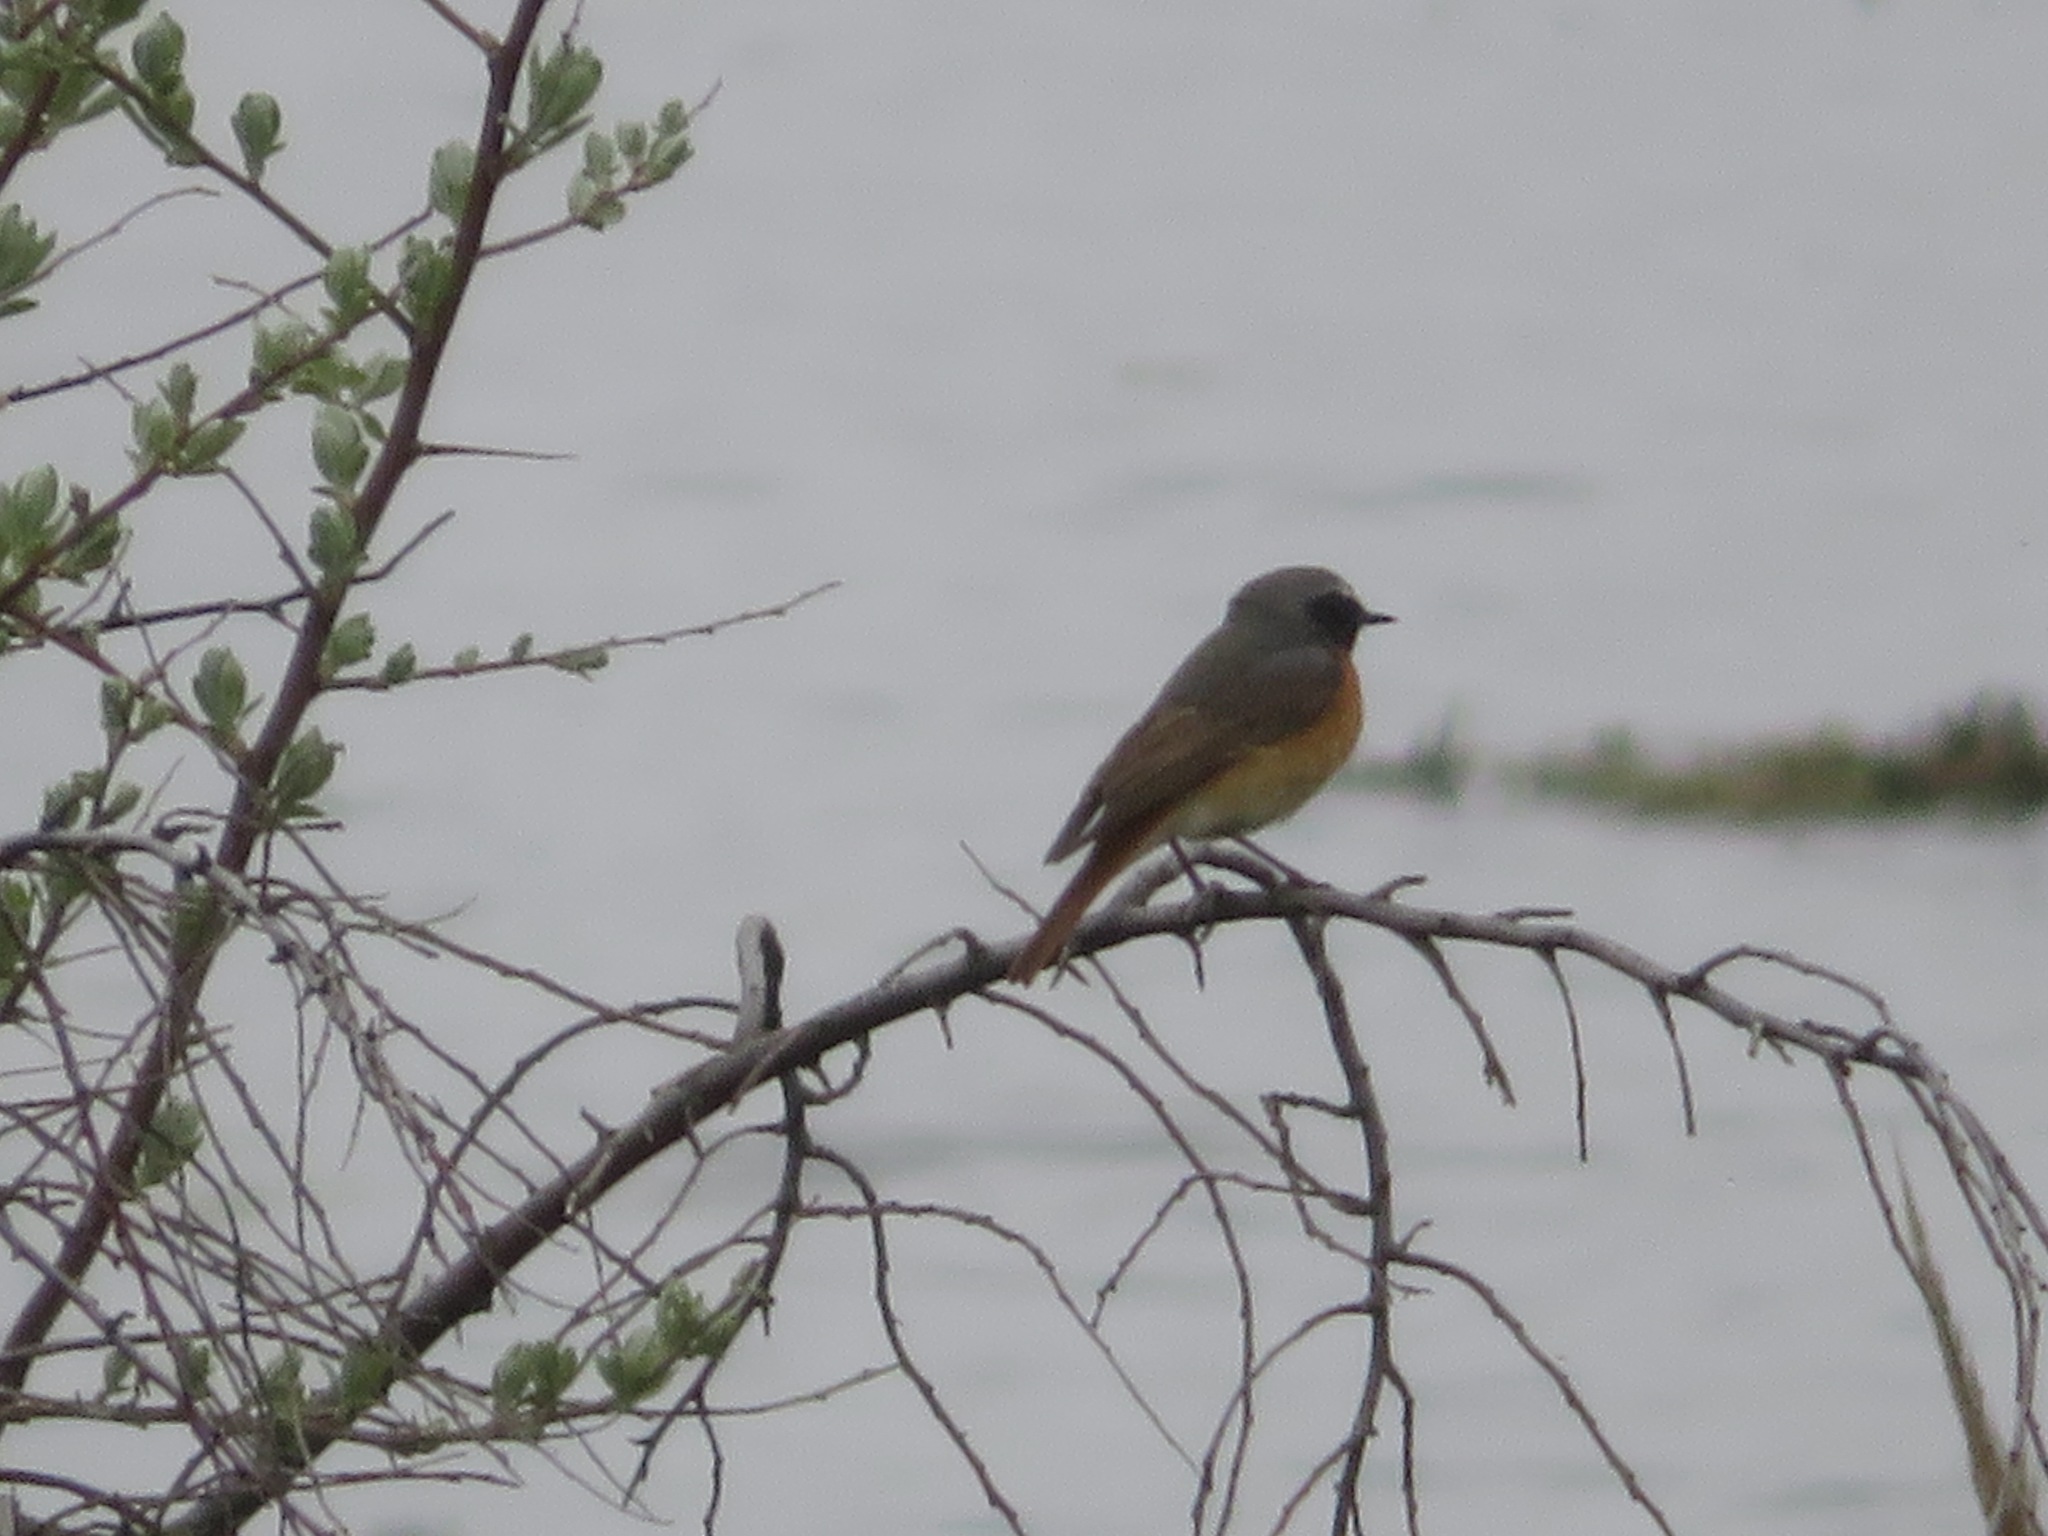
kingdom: Animalia
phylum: Chordata
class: Aves
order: Passeriformes
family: Muscicapidae
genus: Phoenicurus
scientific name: Phoenicurus phoenicurus
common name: Common redstart
